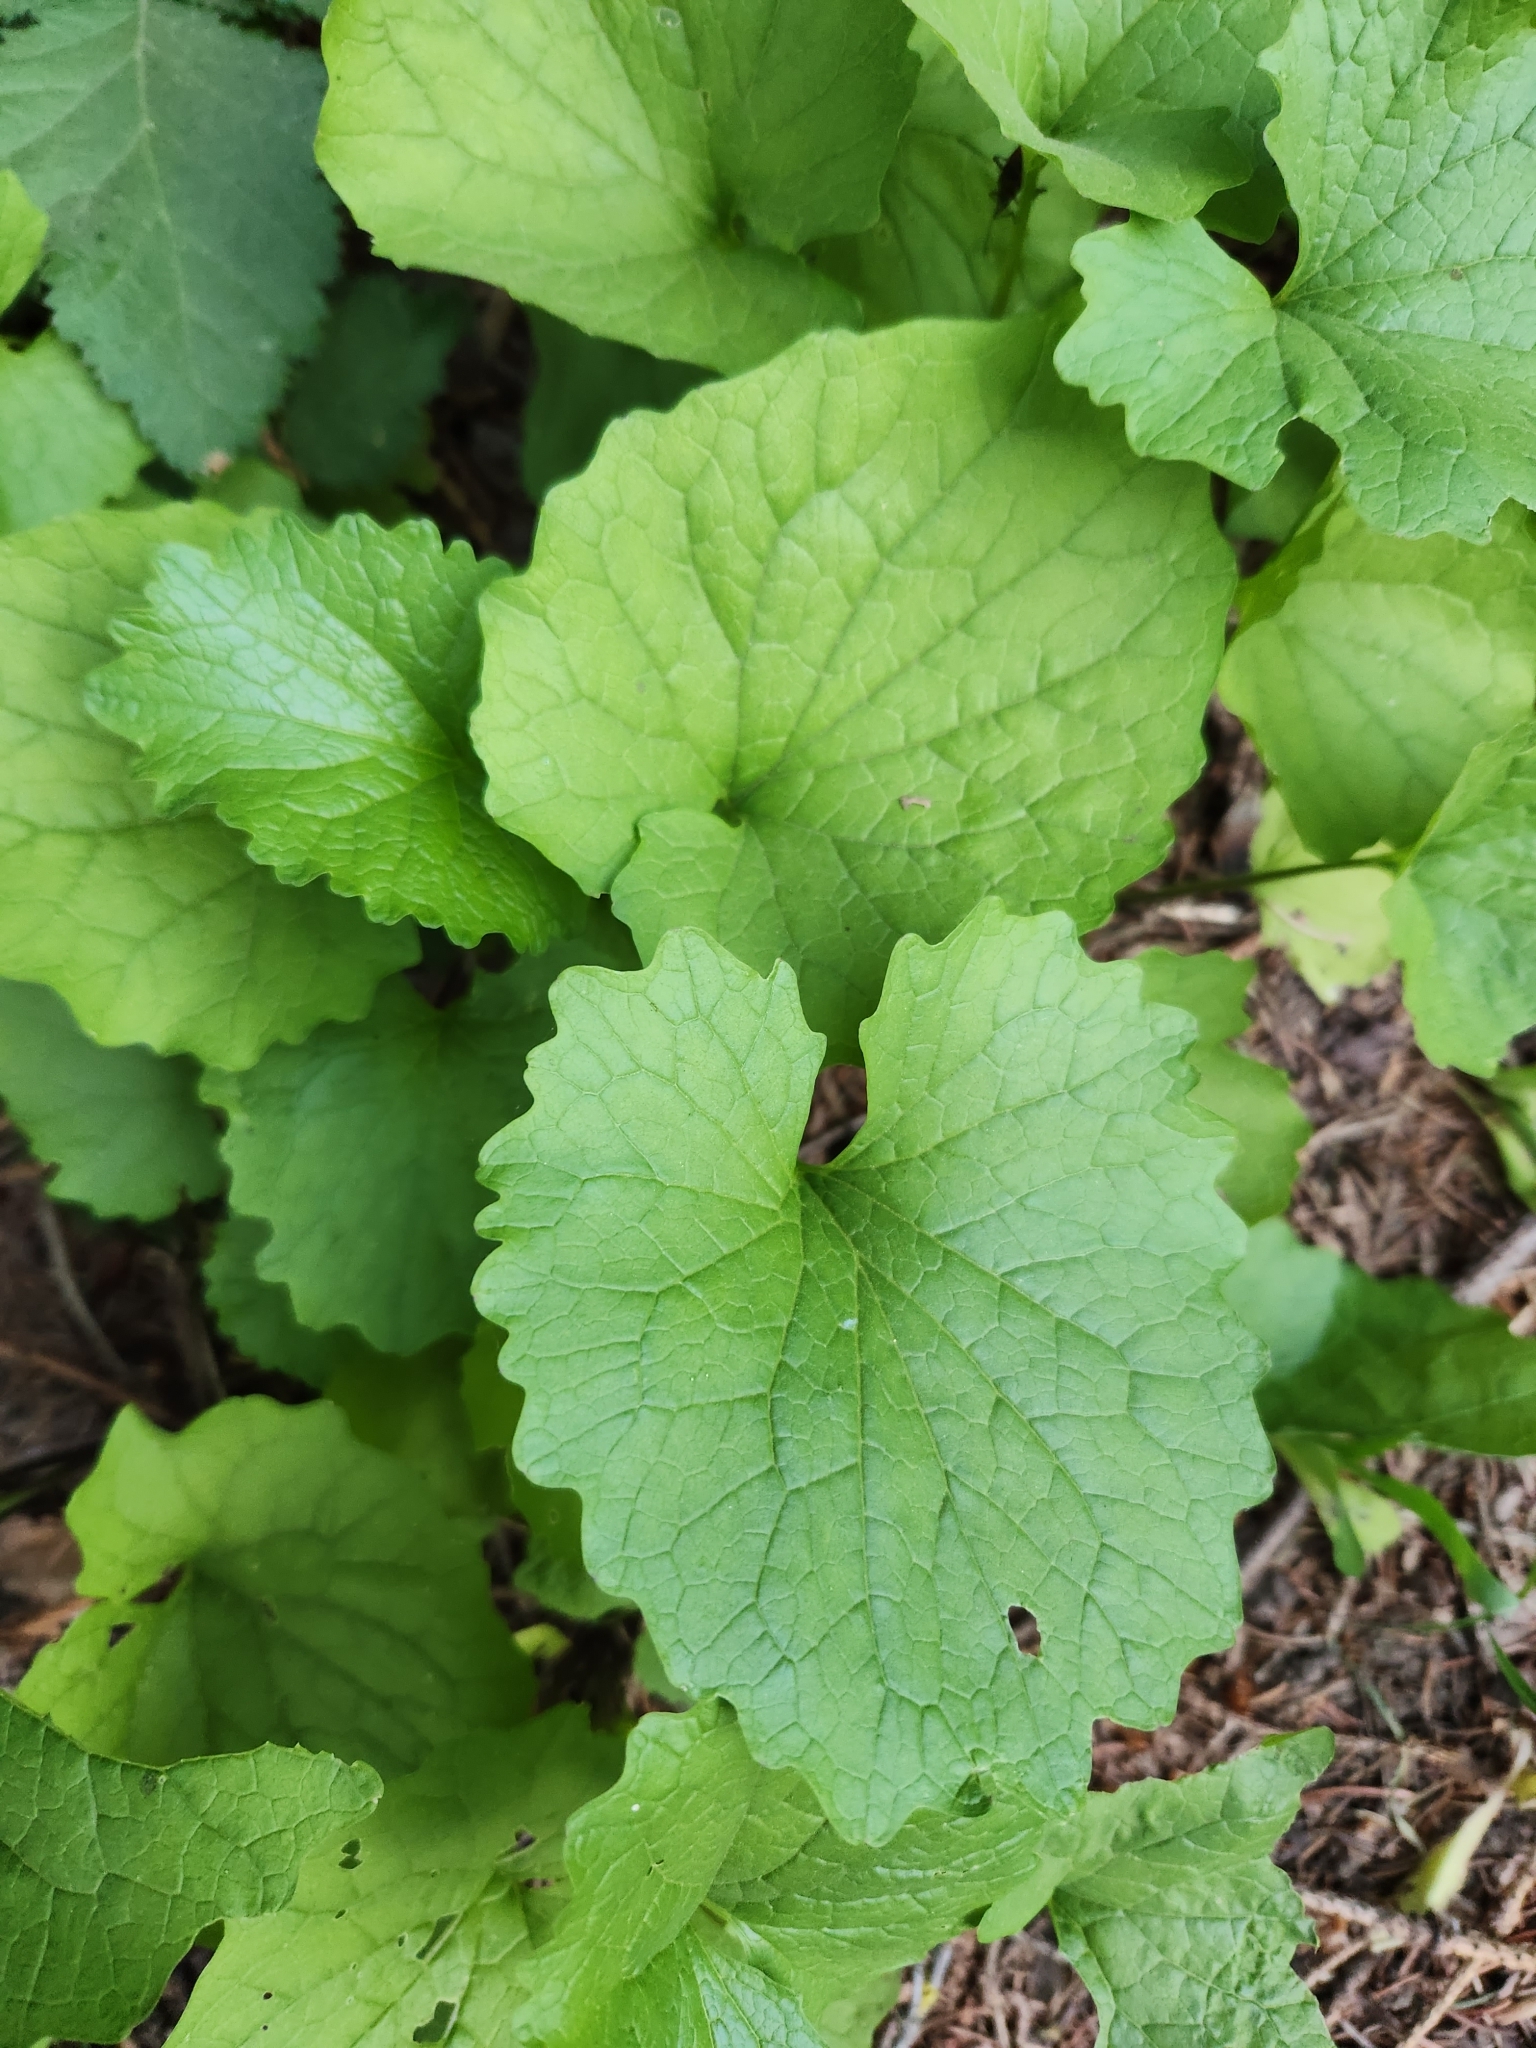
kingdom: Plantae
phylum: Tracheophyta
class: Magnoliopsida
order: Brassicales
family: Brassicaceae
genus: Alliaria
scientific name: Alliaria petiolata
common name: Garlic mustard
